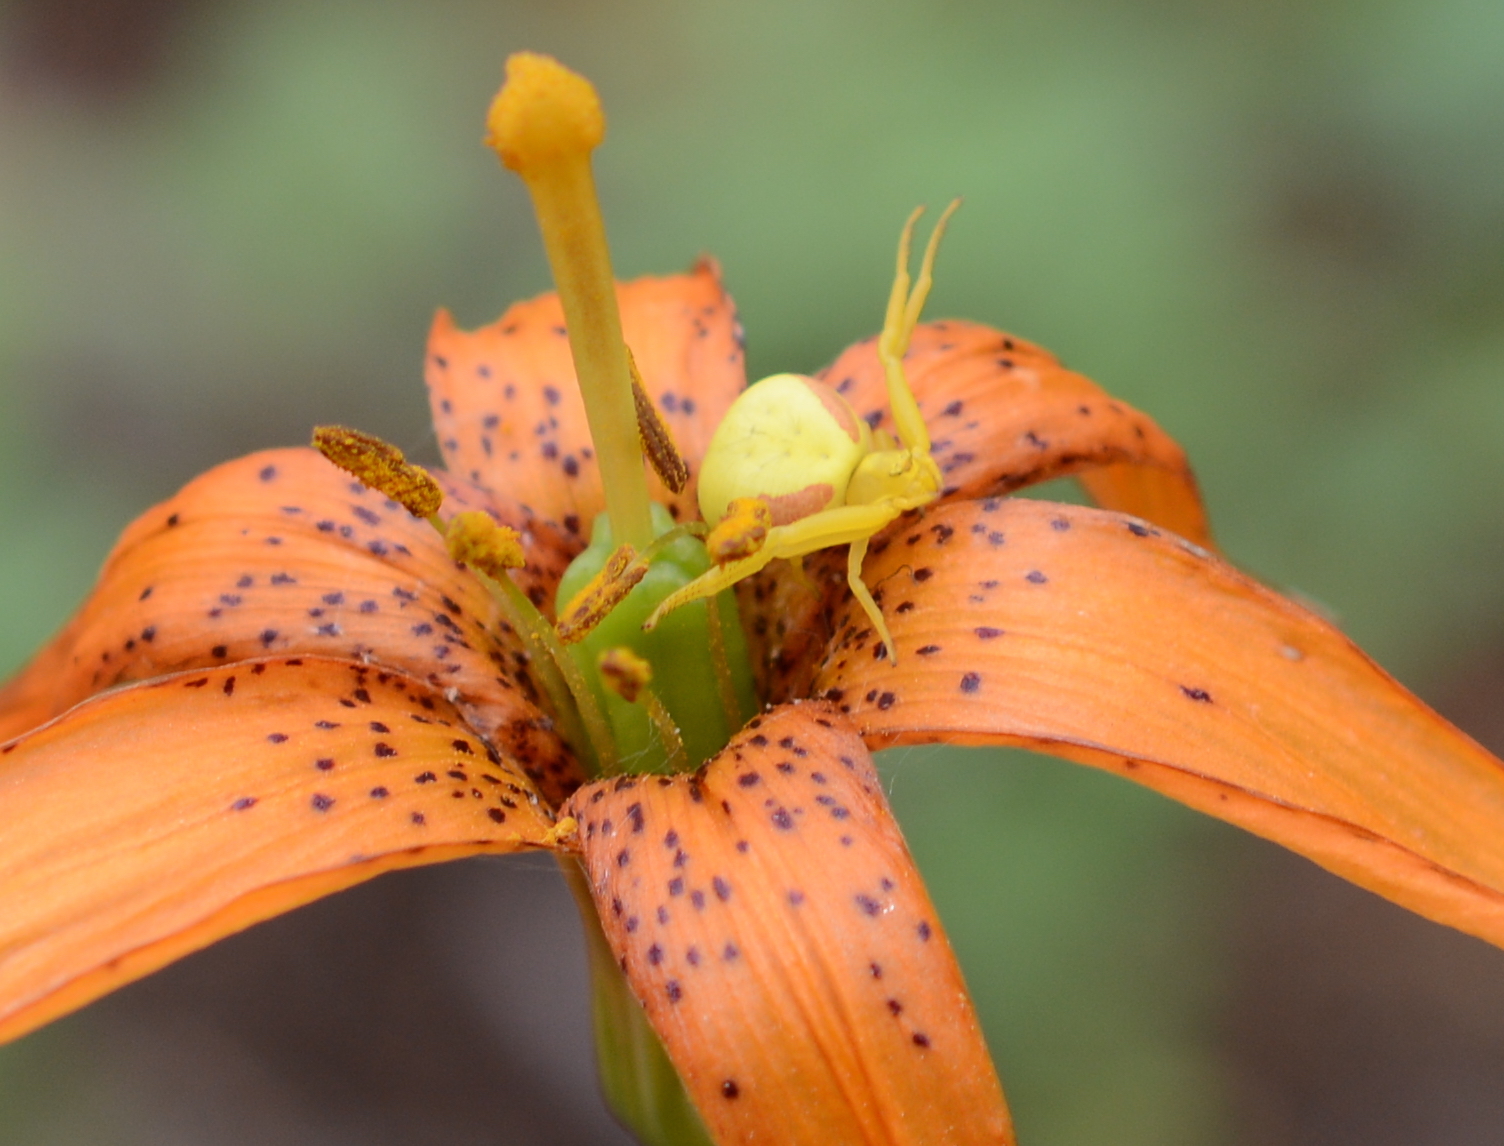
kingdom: Animalia
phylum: Arthropoda
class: Arachnida
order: Araneae
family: Thomisidae
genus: Misumena
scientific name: Misumena vatia
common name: Goldenrod crab spider
